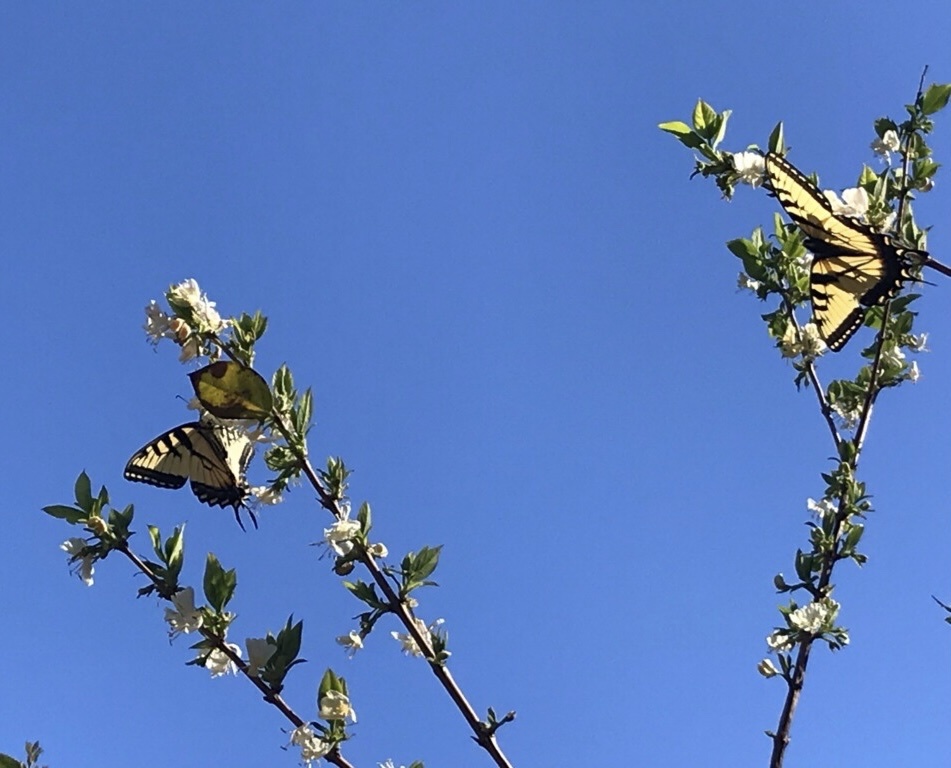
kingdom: Animalia
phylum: Arthropoda
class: Insecta
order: Lepidoptera
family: Papilionidae
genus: Papilio
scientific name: Papilio glaucus
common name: Tiger swallowtail
